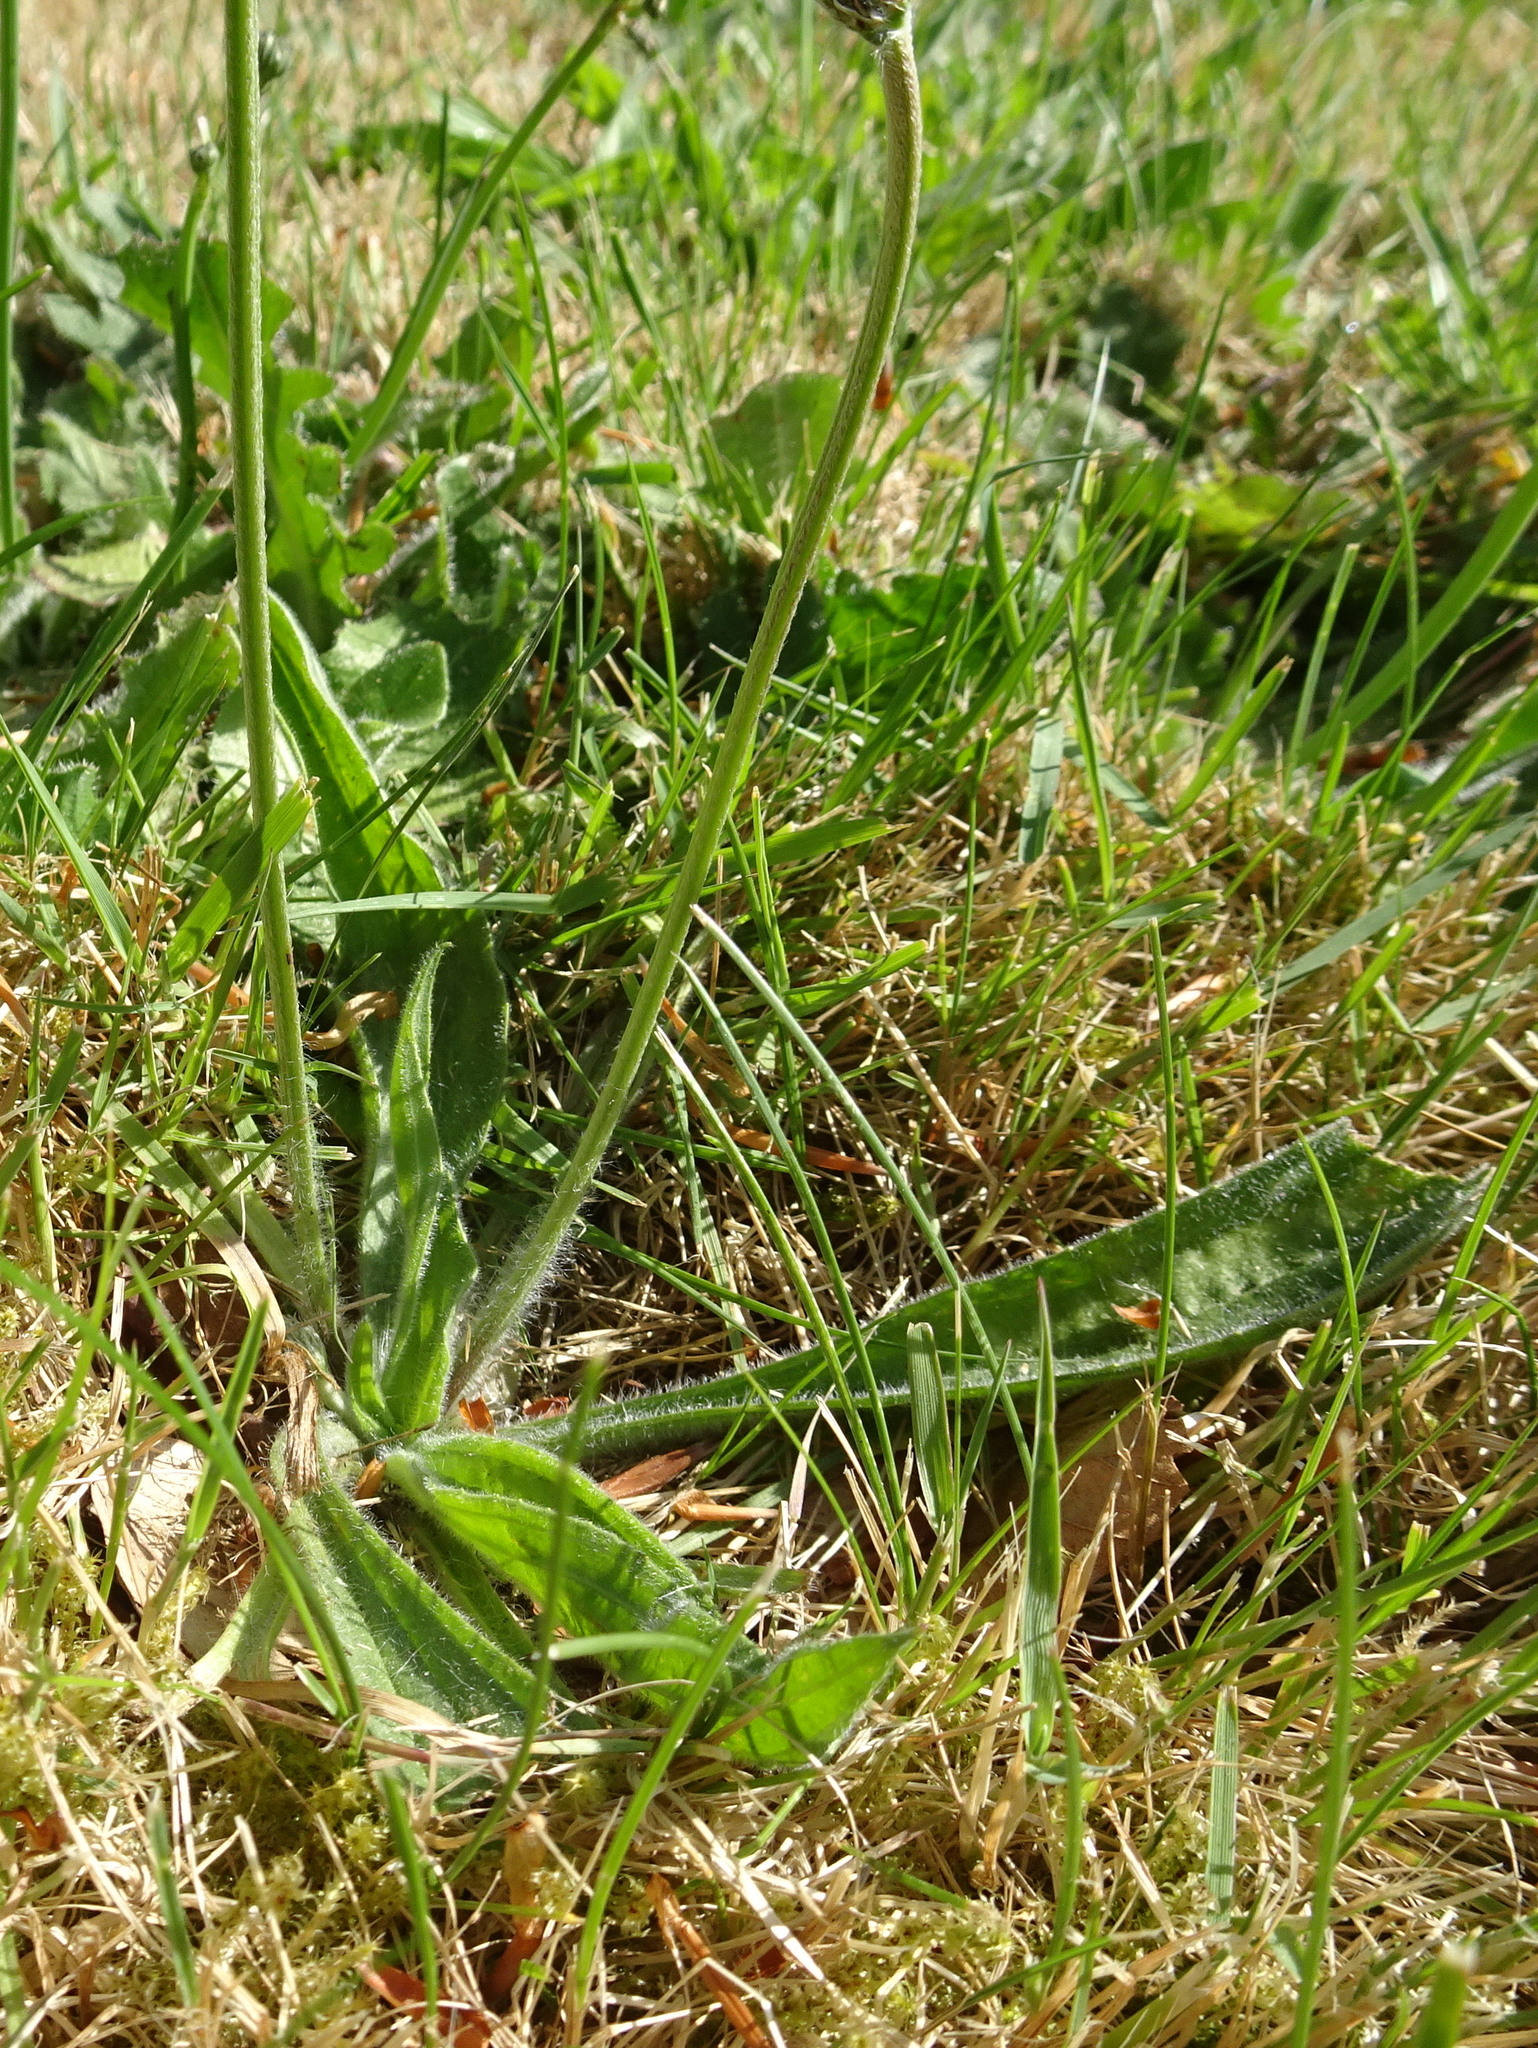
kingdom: Plantae
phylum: Tracheophyta
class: Magnoliopsida
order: Lamiales
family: Plantaginaceae
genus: Plantago
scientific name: Plantago lanceolata
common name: Ribwort plantain
